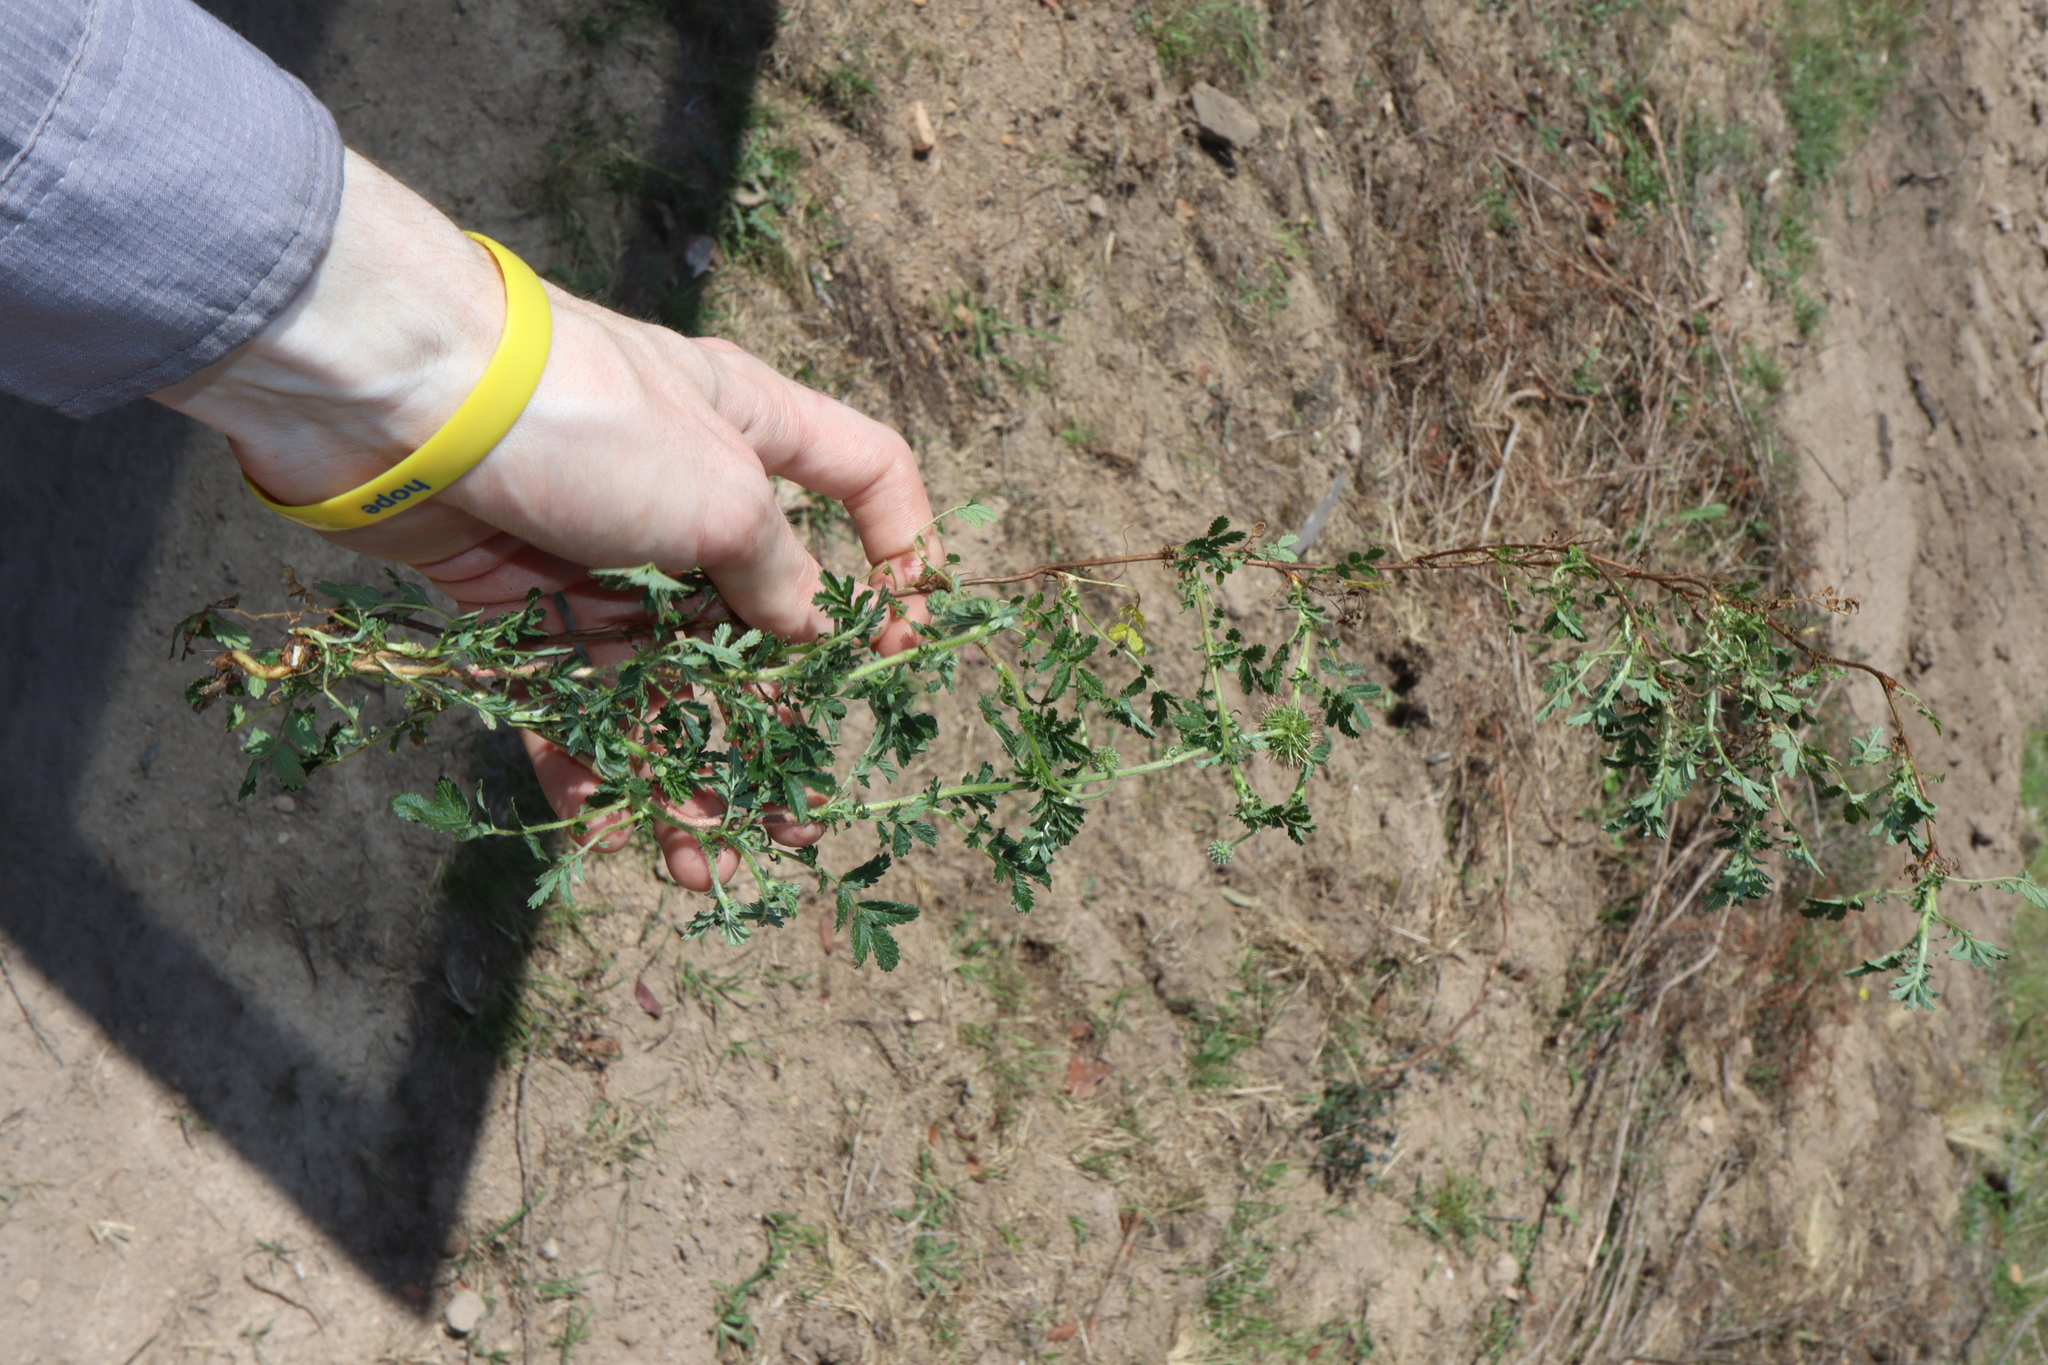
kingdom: Plantae
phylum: Tracheophyta
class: Magnoliopsida
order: Rosales
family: Rosaceae
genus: Acaena
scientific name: Acaena novae-zelandiae
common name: Pirri-pirri-bur
